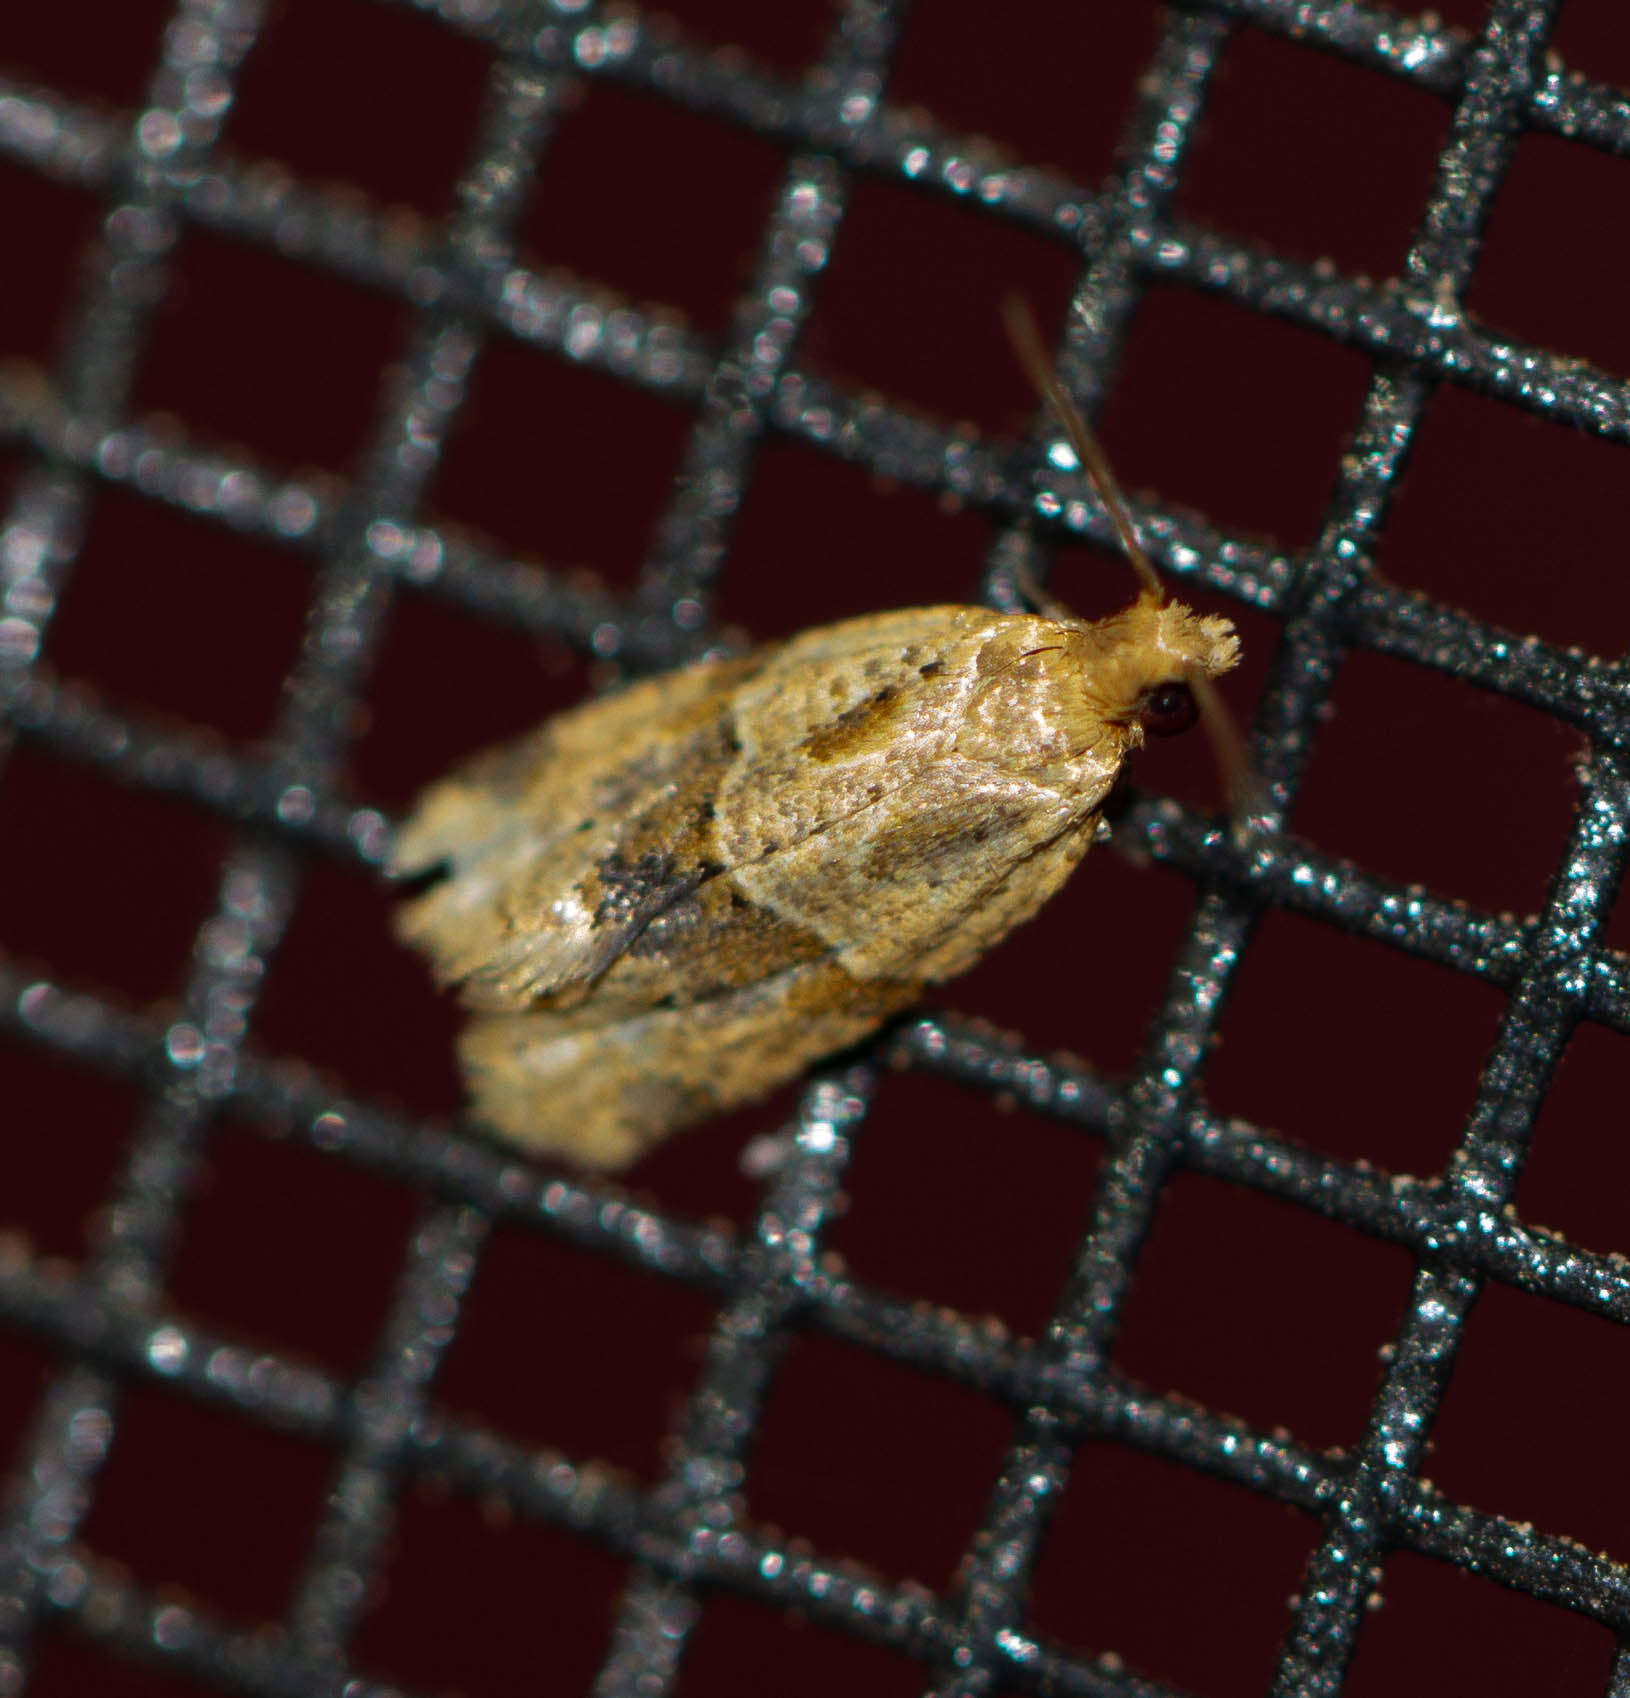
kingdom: Animalia
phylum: Arthropoda
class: Insecta
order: Lepidoptera
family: Tortricidae
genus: Clepsis
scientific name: Clepsis peritana
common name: Garden tortrix
